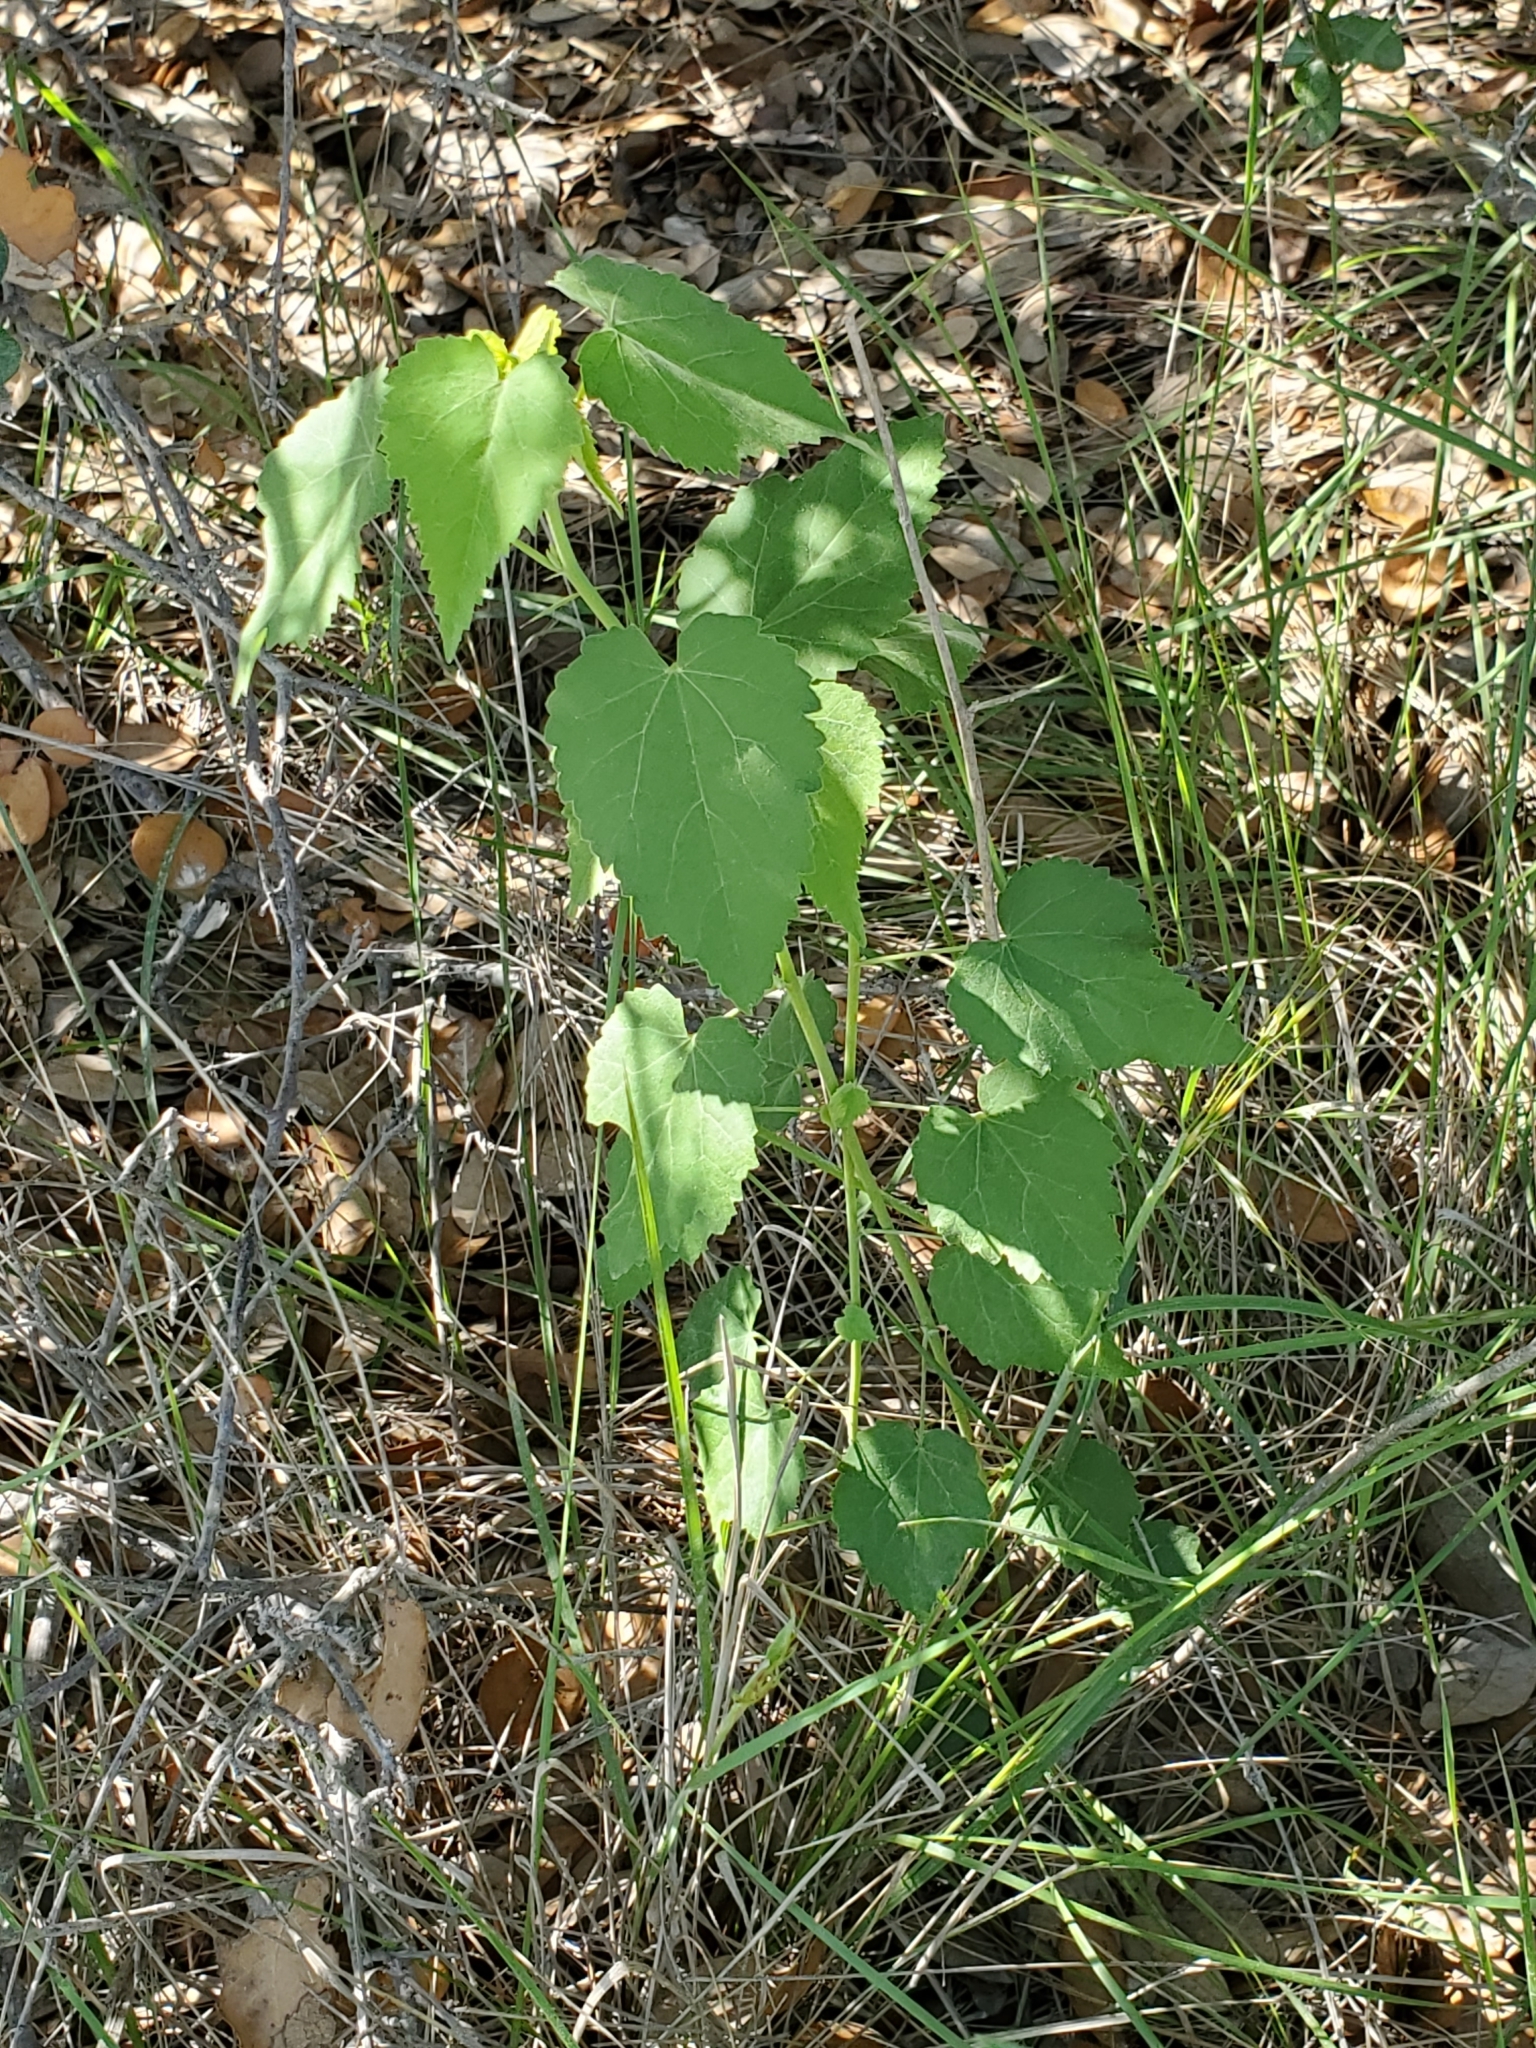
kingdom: Plantae
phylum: Tracheophyta
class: Magnoliopsida
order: Malvales
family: Malvaceae
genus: Abutilon
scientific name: Abutilon fruticosum
